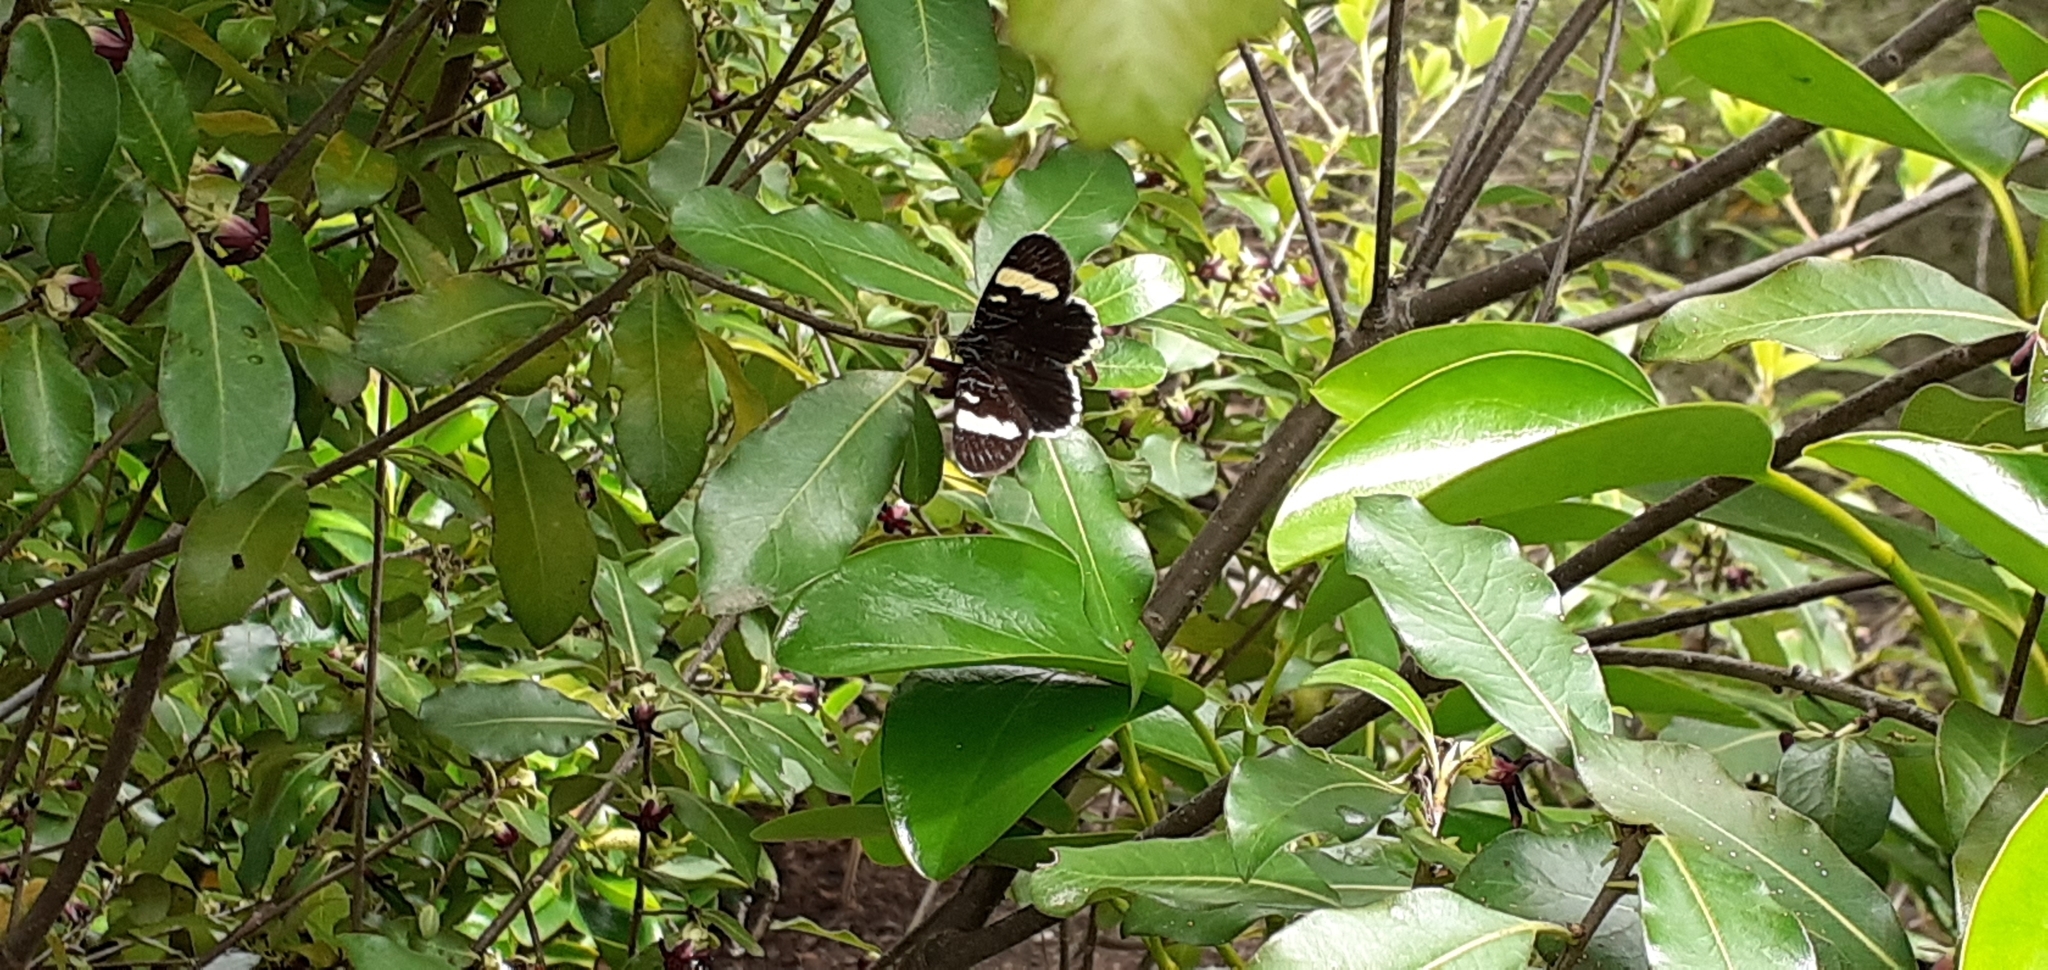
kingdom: Animalia
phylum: Arthropoda
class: Insecta
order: Lepidoptera
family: Noctuidae
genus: Phalaenoides
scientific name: Phalaenoides glycinae
